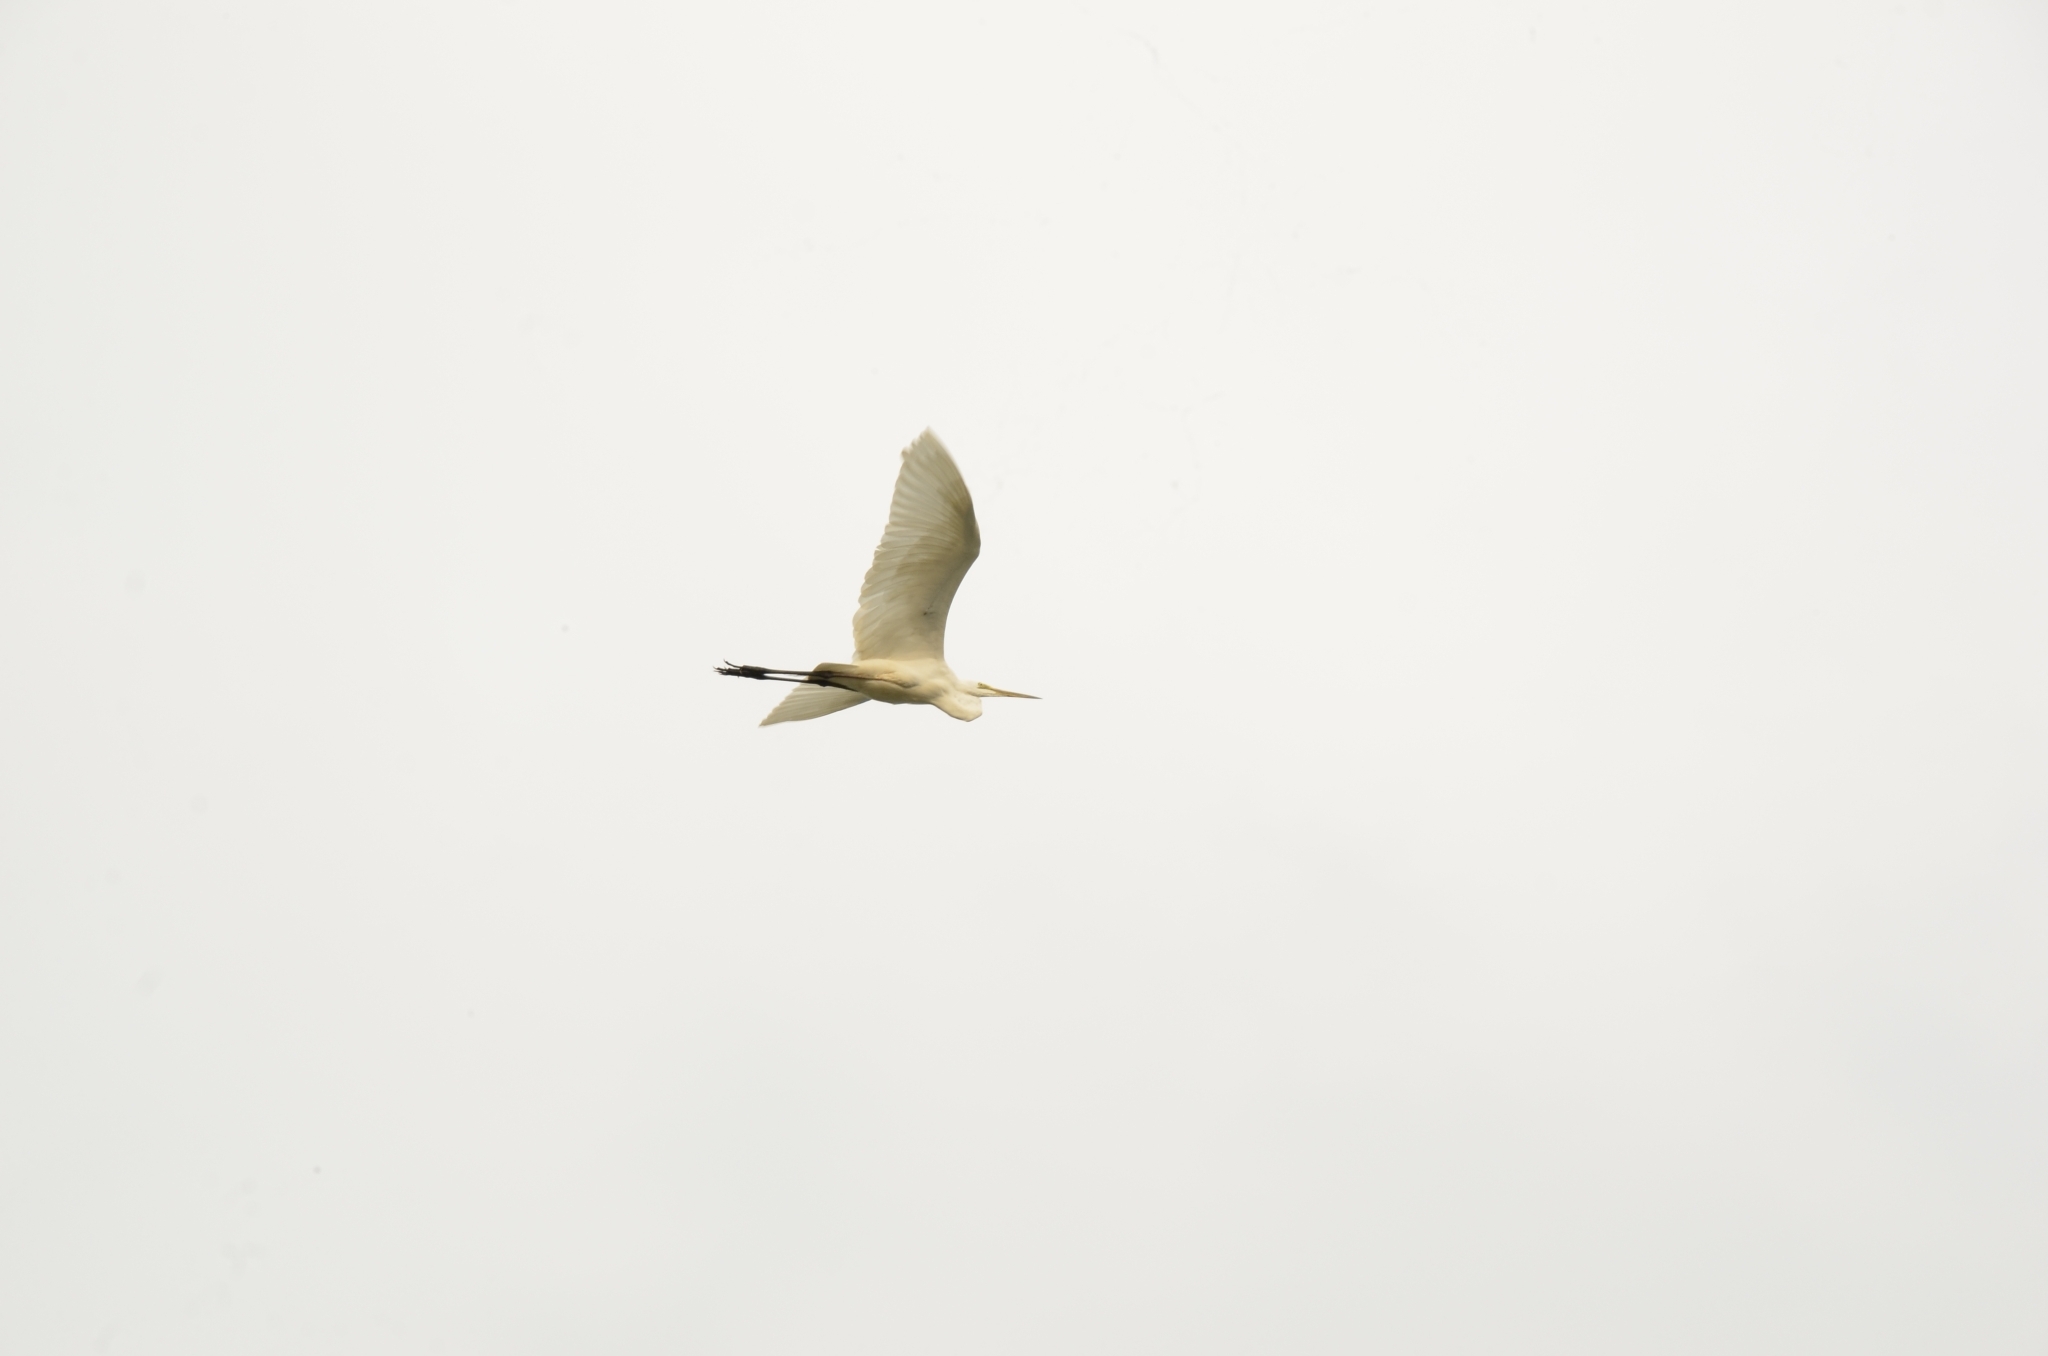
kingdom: Animalia
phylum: Chordata
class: Aves
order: Pelecaniformes
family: Ardeidae
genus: Ardea
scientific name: Ardea alba
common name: Great egret
